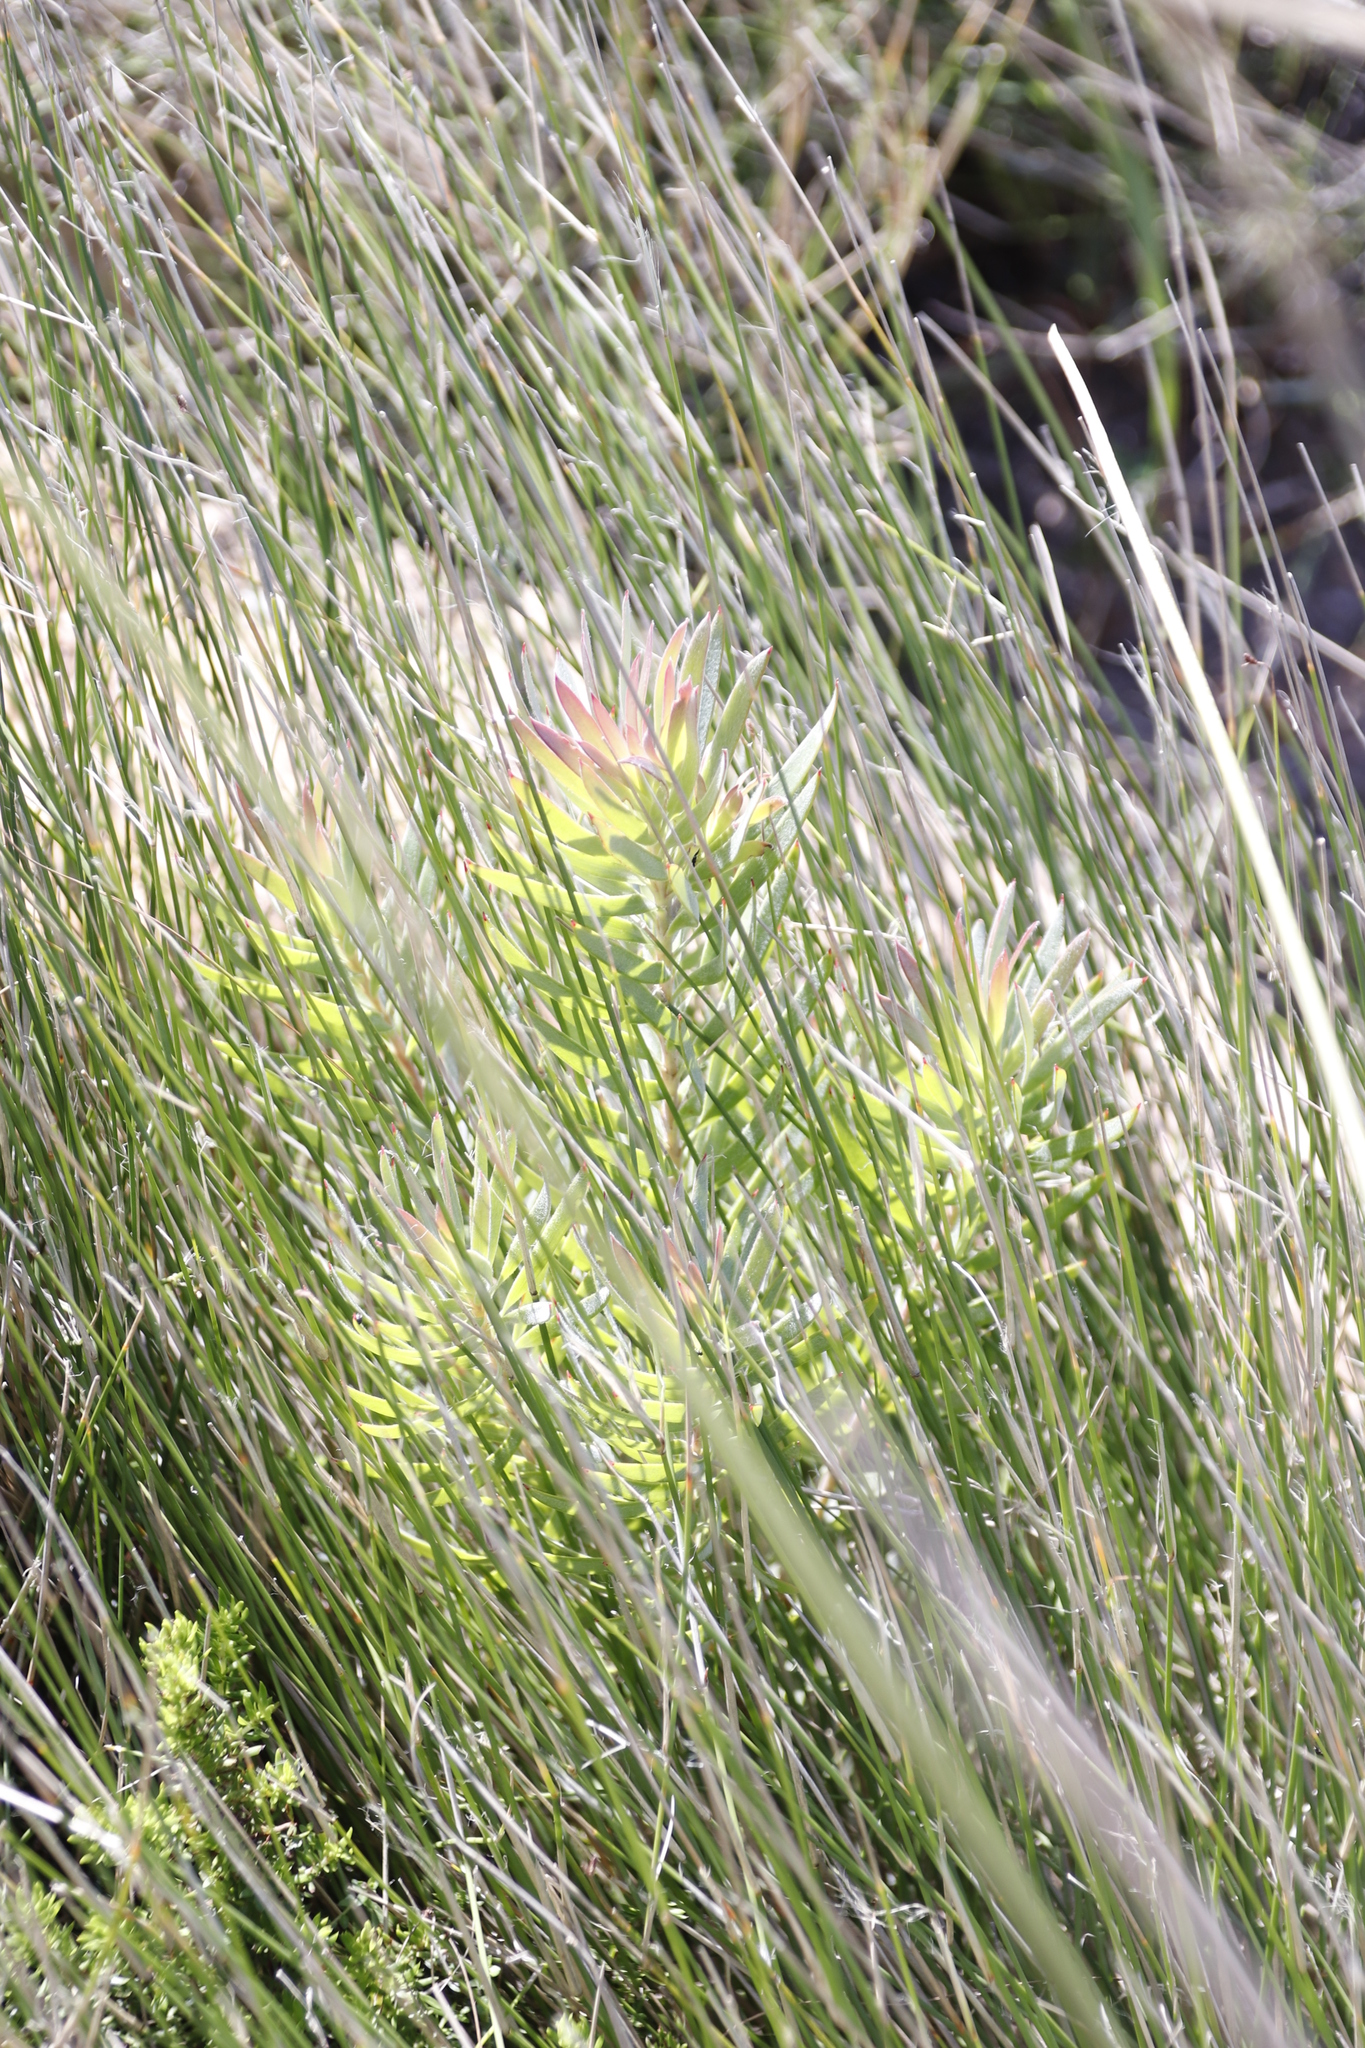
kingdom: Plantae
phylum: Tracheophyta
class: Magnoliopsida
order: Proteales
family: Proteaceae
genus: Leucadendron
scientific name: Leucadendron xanthoconus
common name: Sickle-leaf conebush
